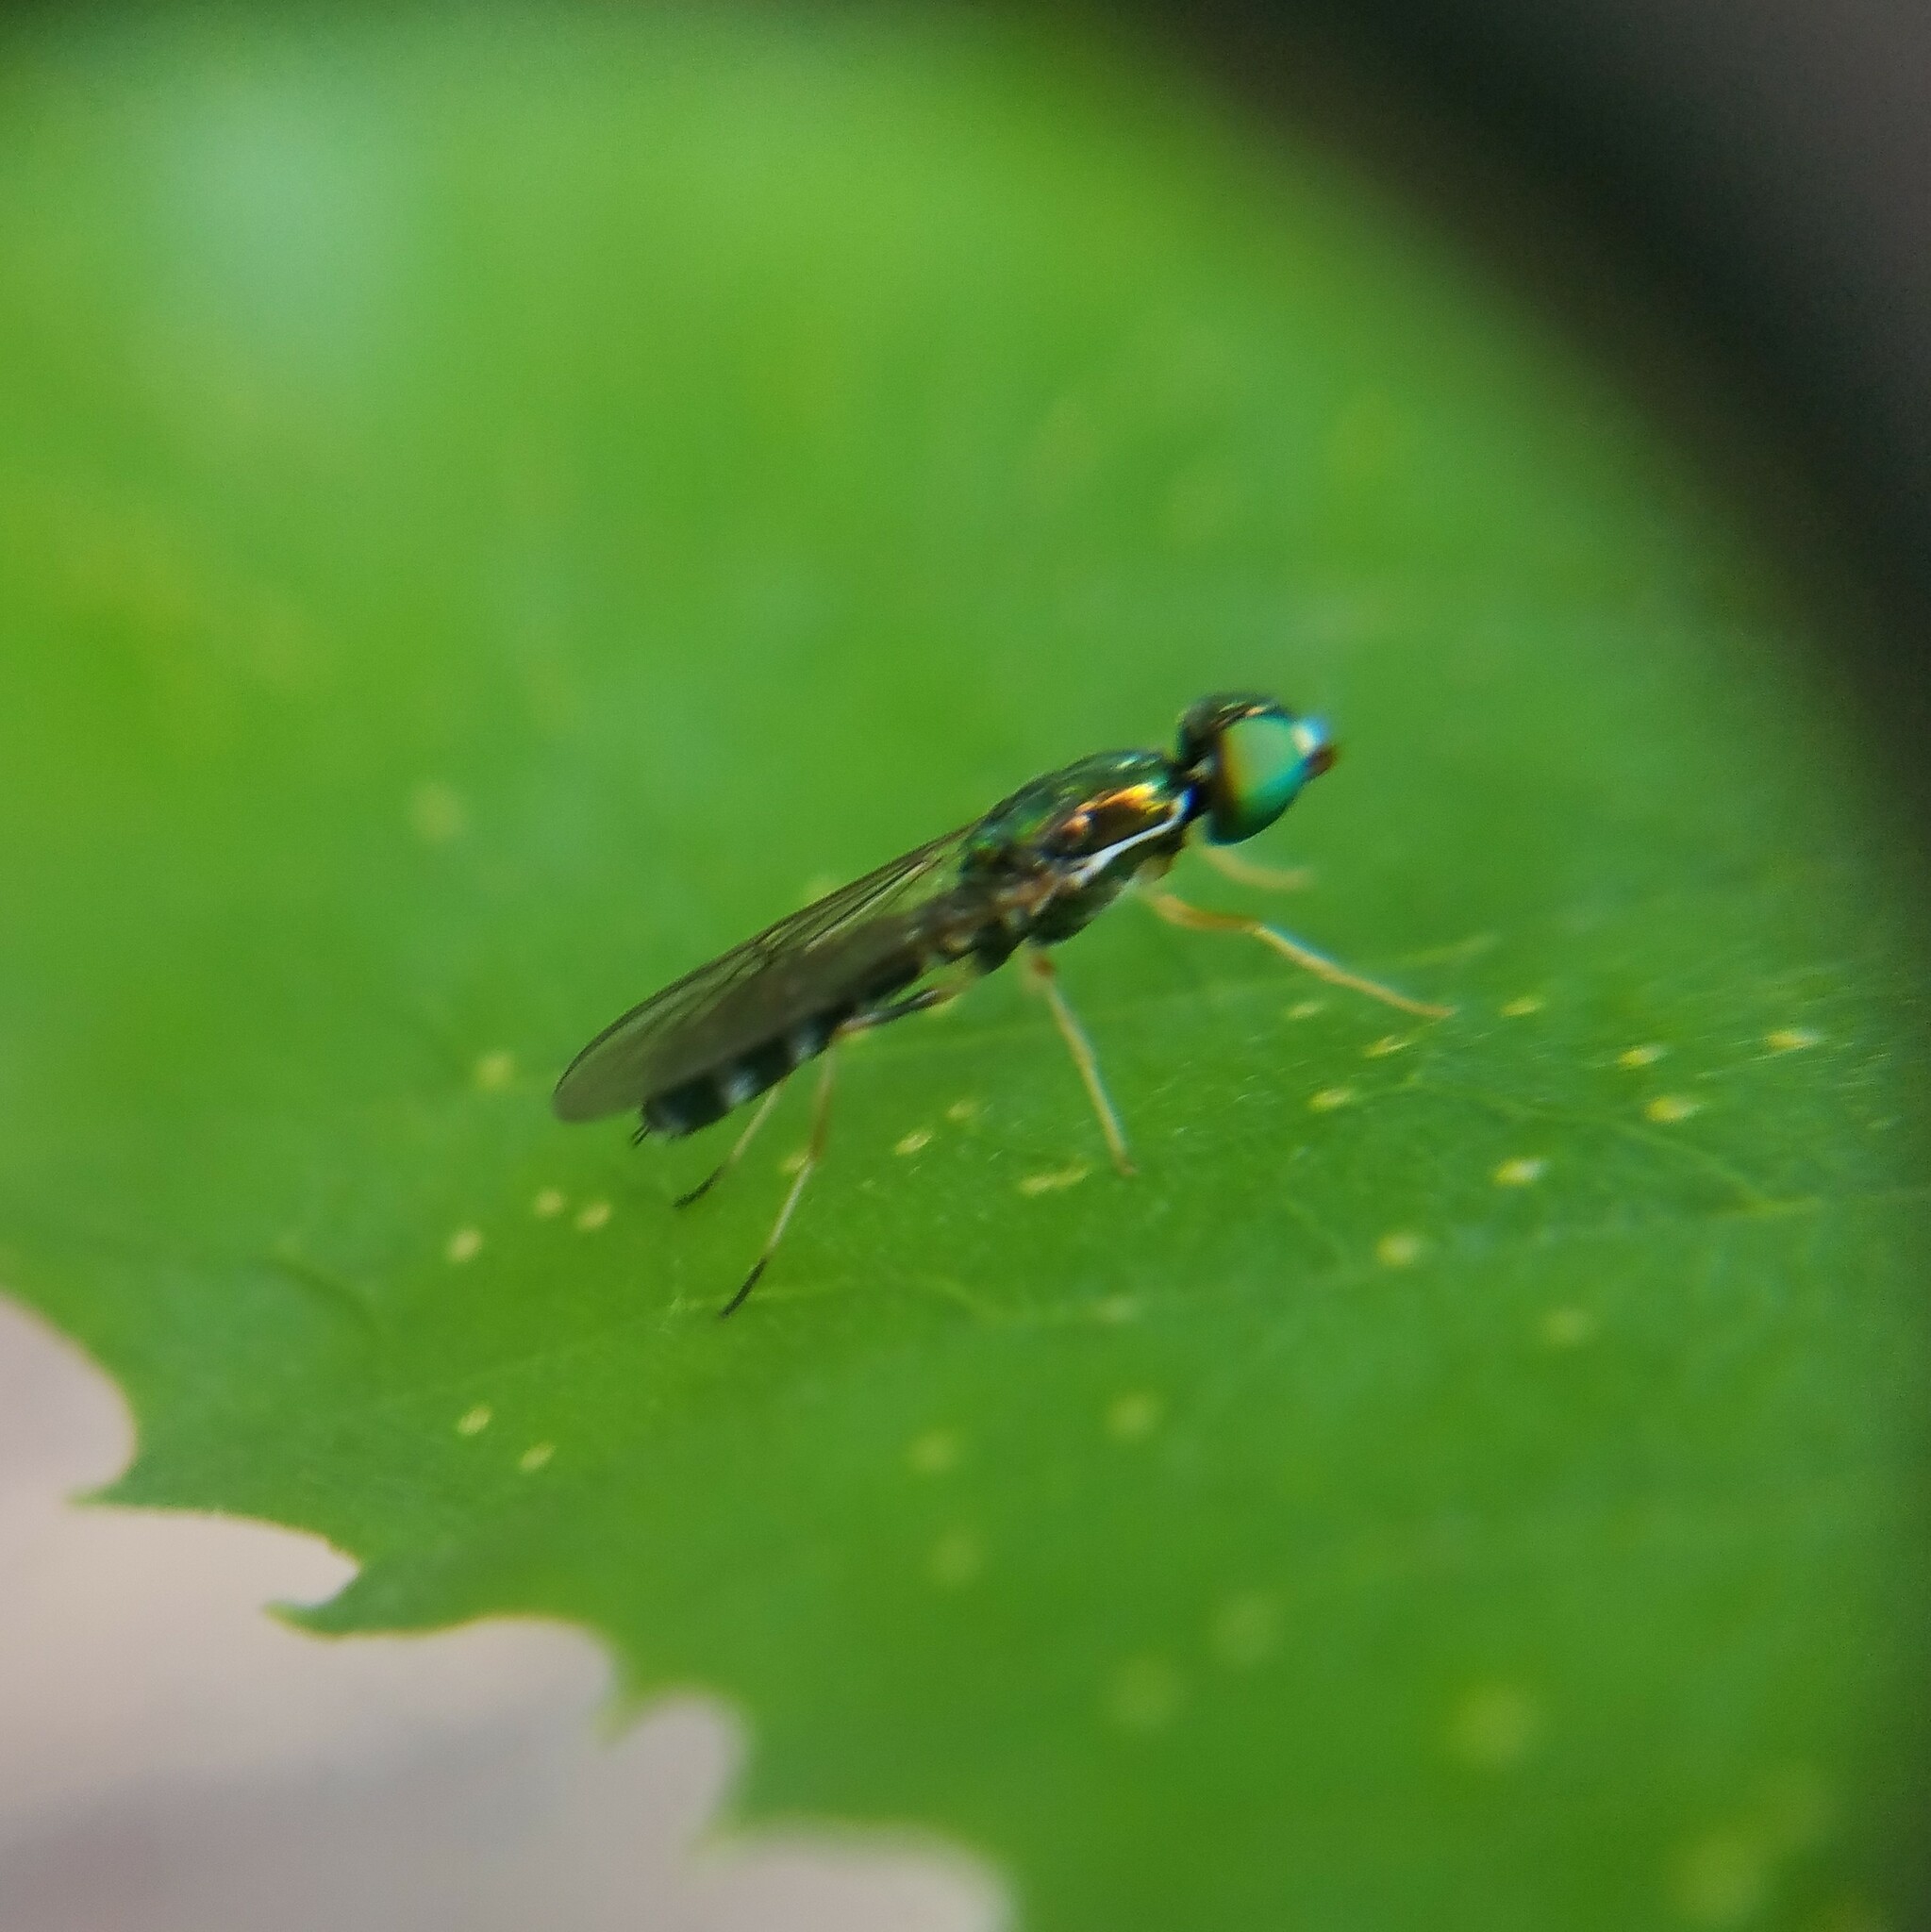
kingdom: Animalia
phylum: Arthropoda
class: Insecta
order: Diptera
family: Stratiomyidae
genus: Sargus
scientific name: Sargus fasciatus
